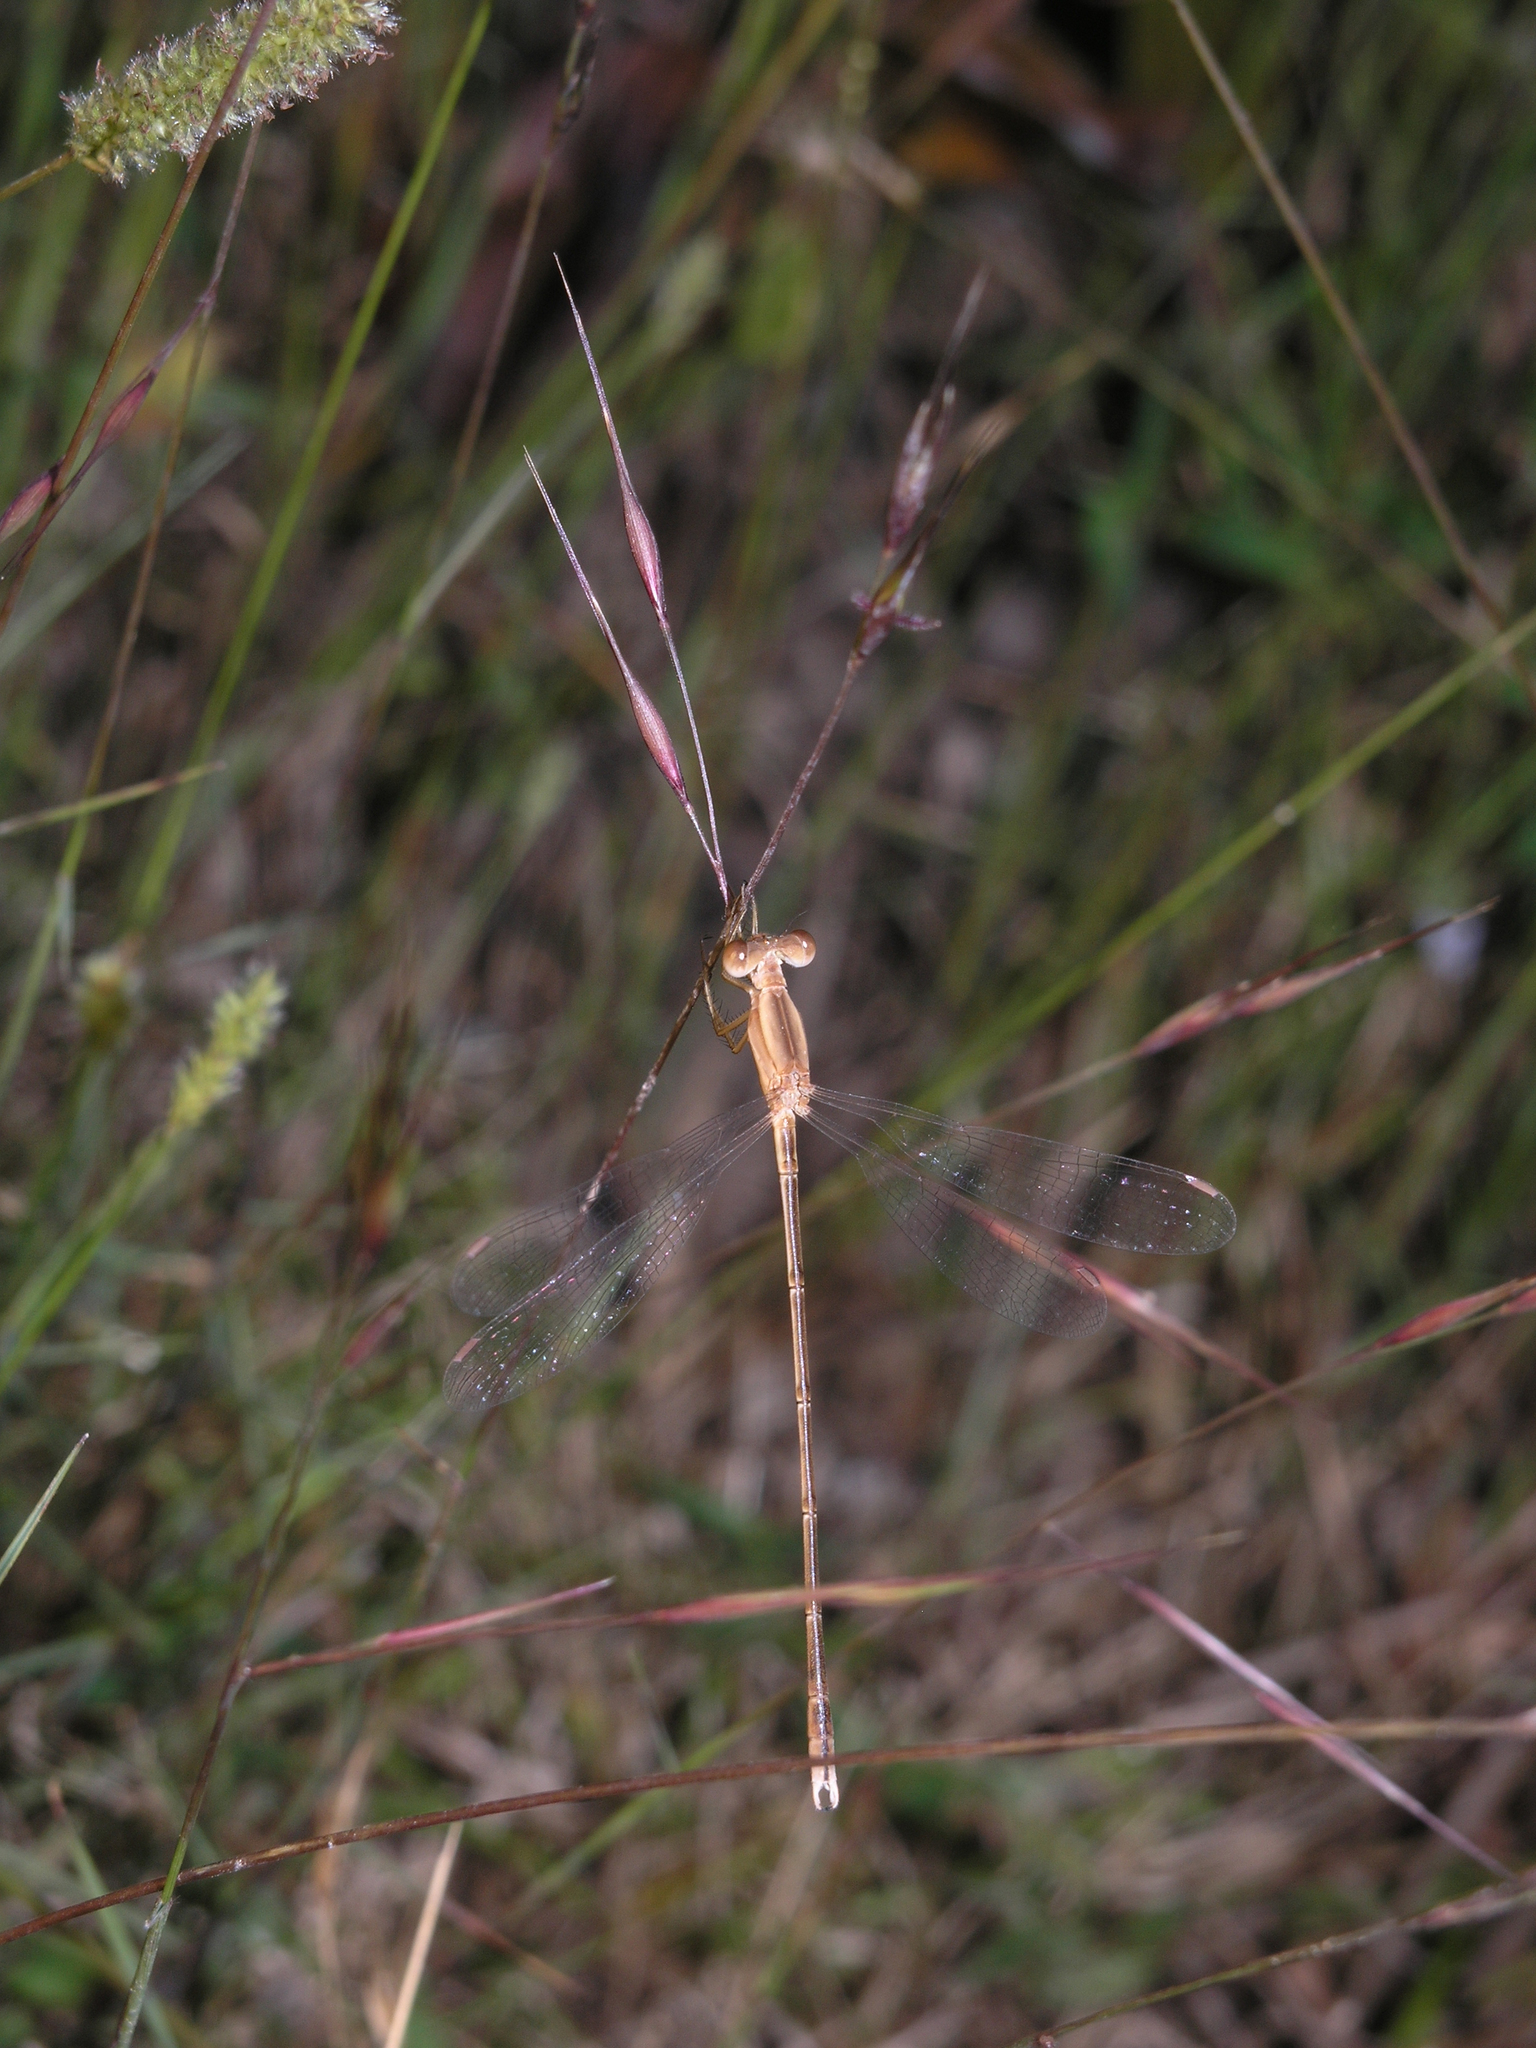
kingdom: Animalia
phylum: Arthropoda
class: Insecta
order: Odonata
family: Lestidae
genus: Lestes
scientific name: Lestes concinnus
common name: Dusky spreadwing
